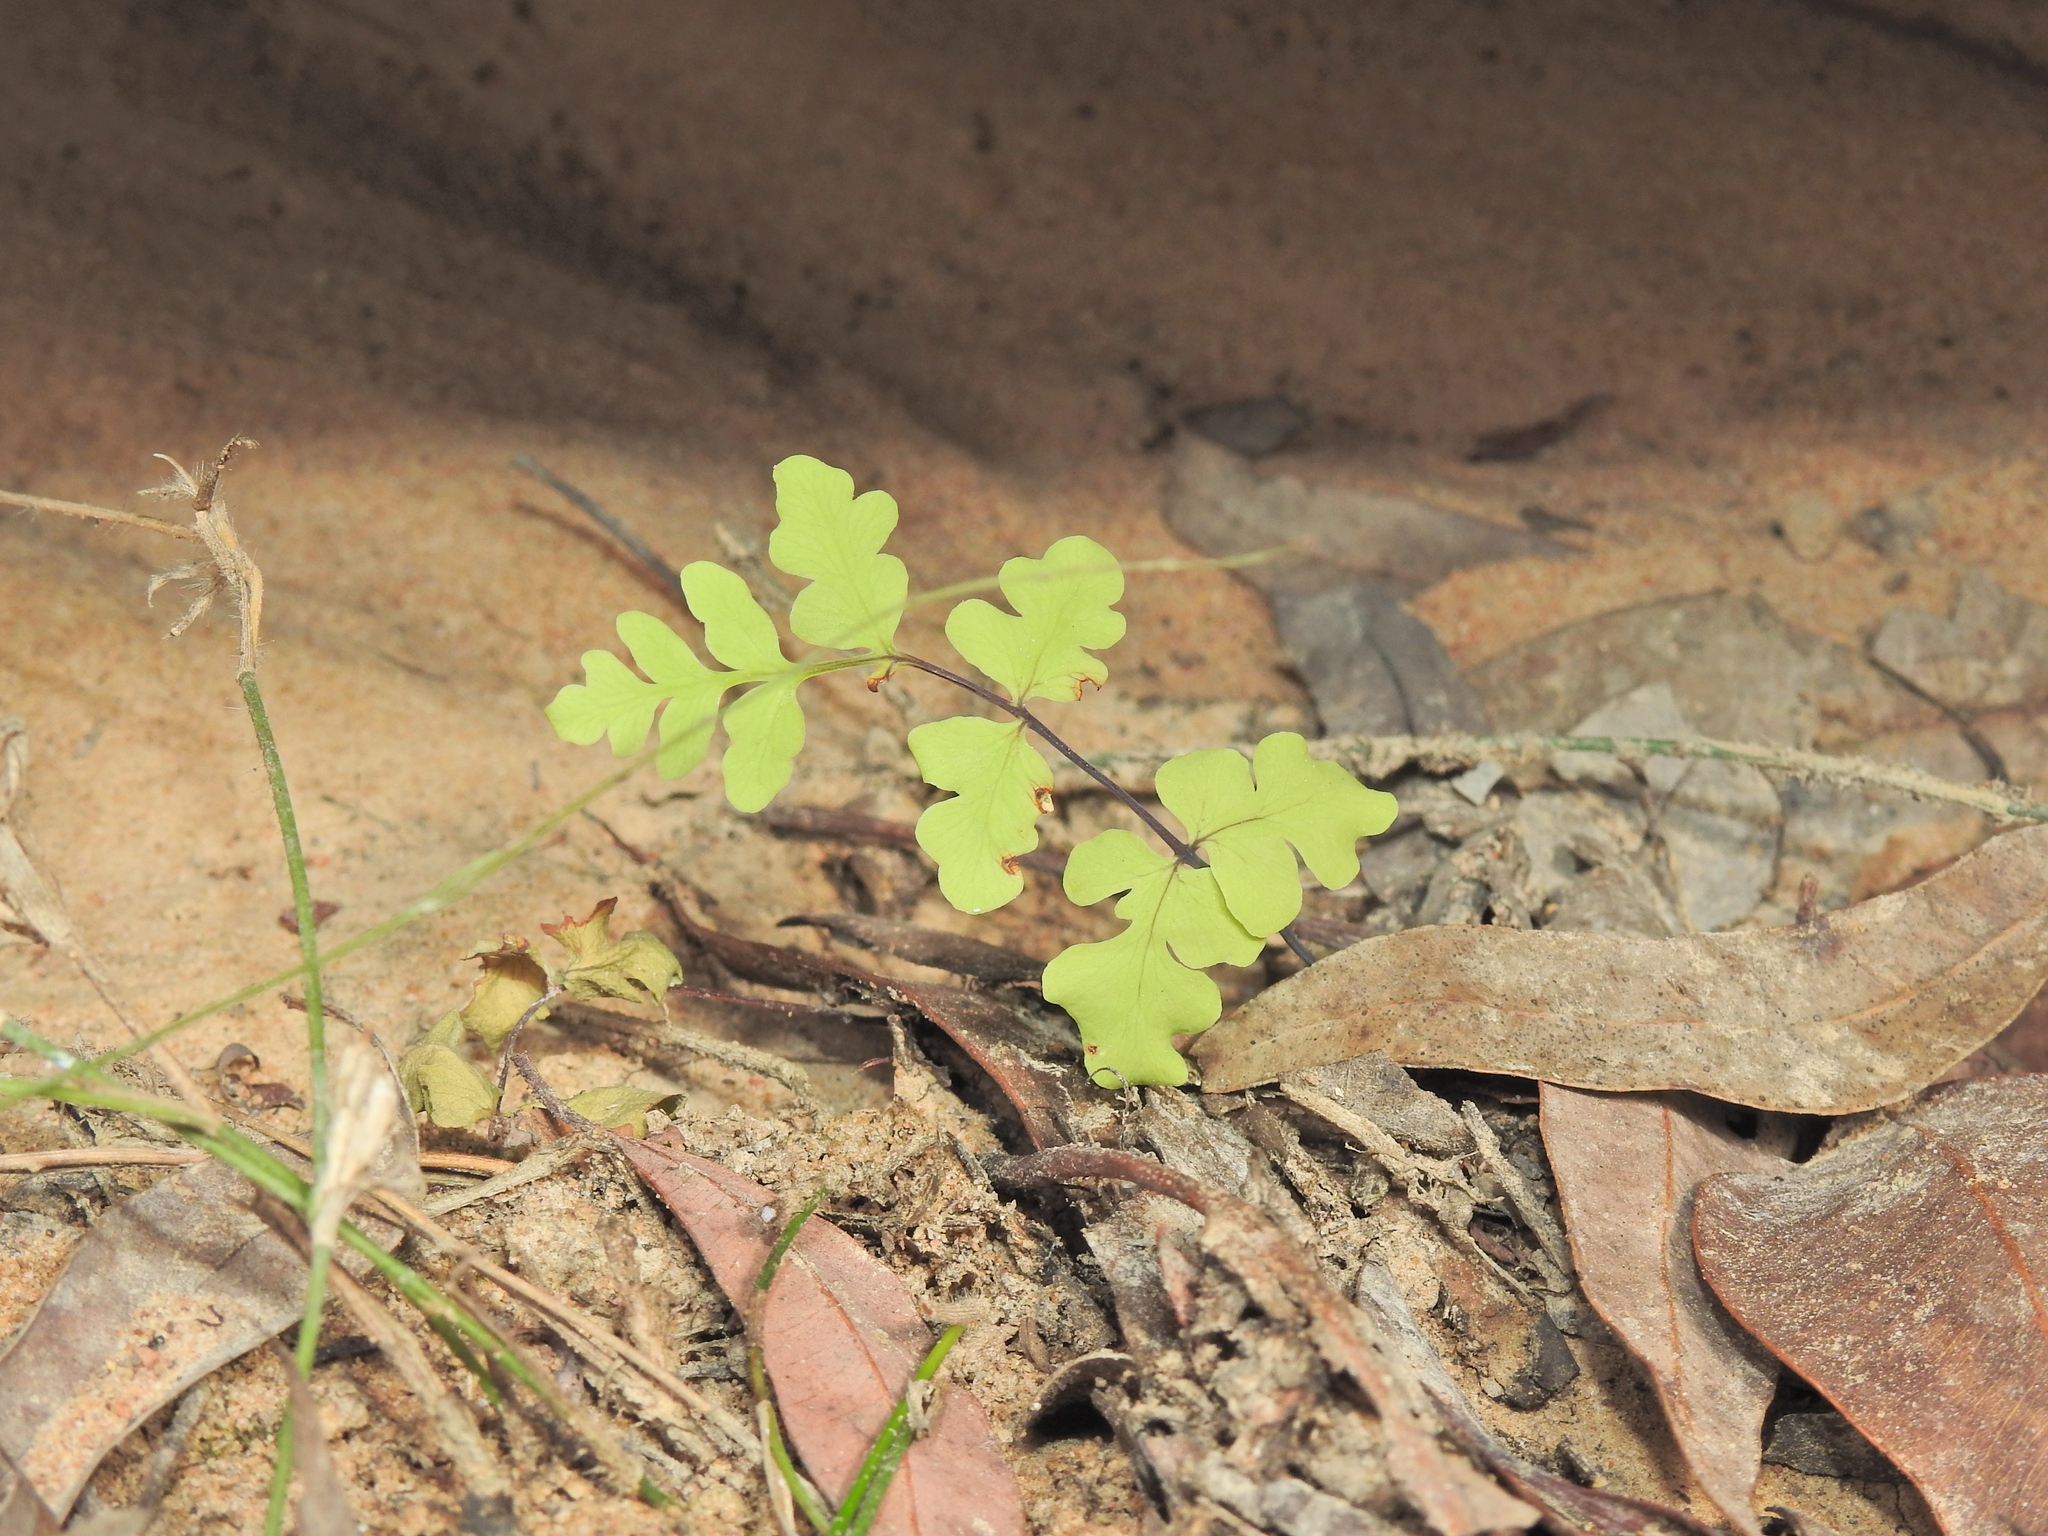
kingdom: Plantae
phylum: Tracheophyta
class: Polypodiopsida
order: Polypodiales
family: Dennstaedtiaceae
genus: Histiopteris
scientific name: Histiopteris incisa
